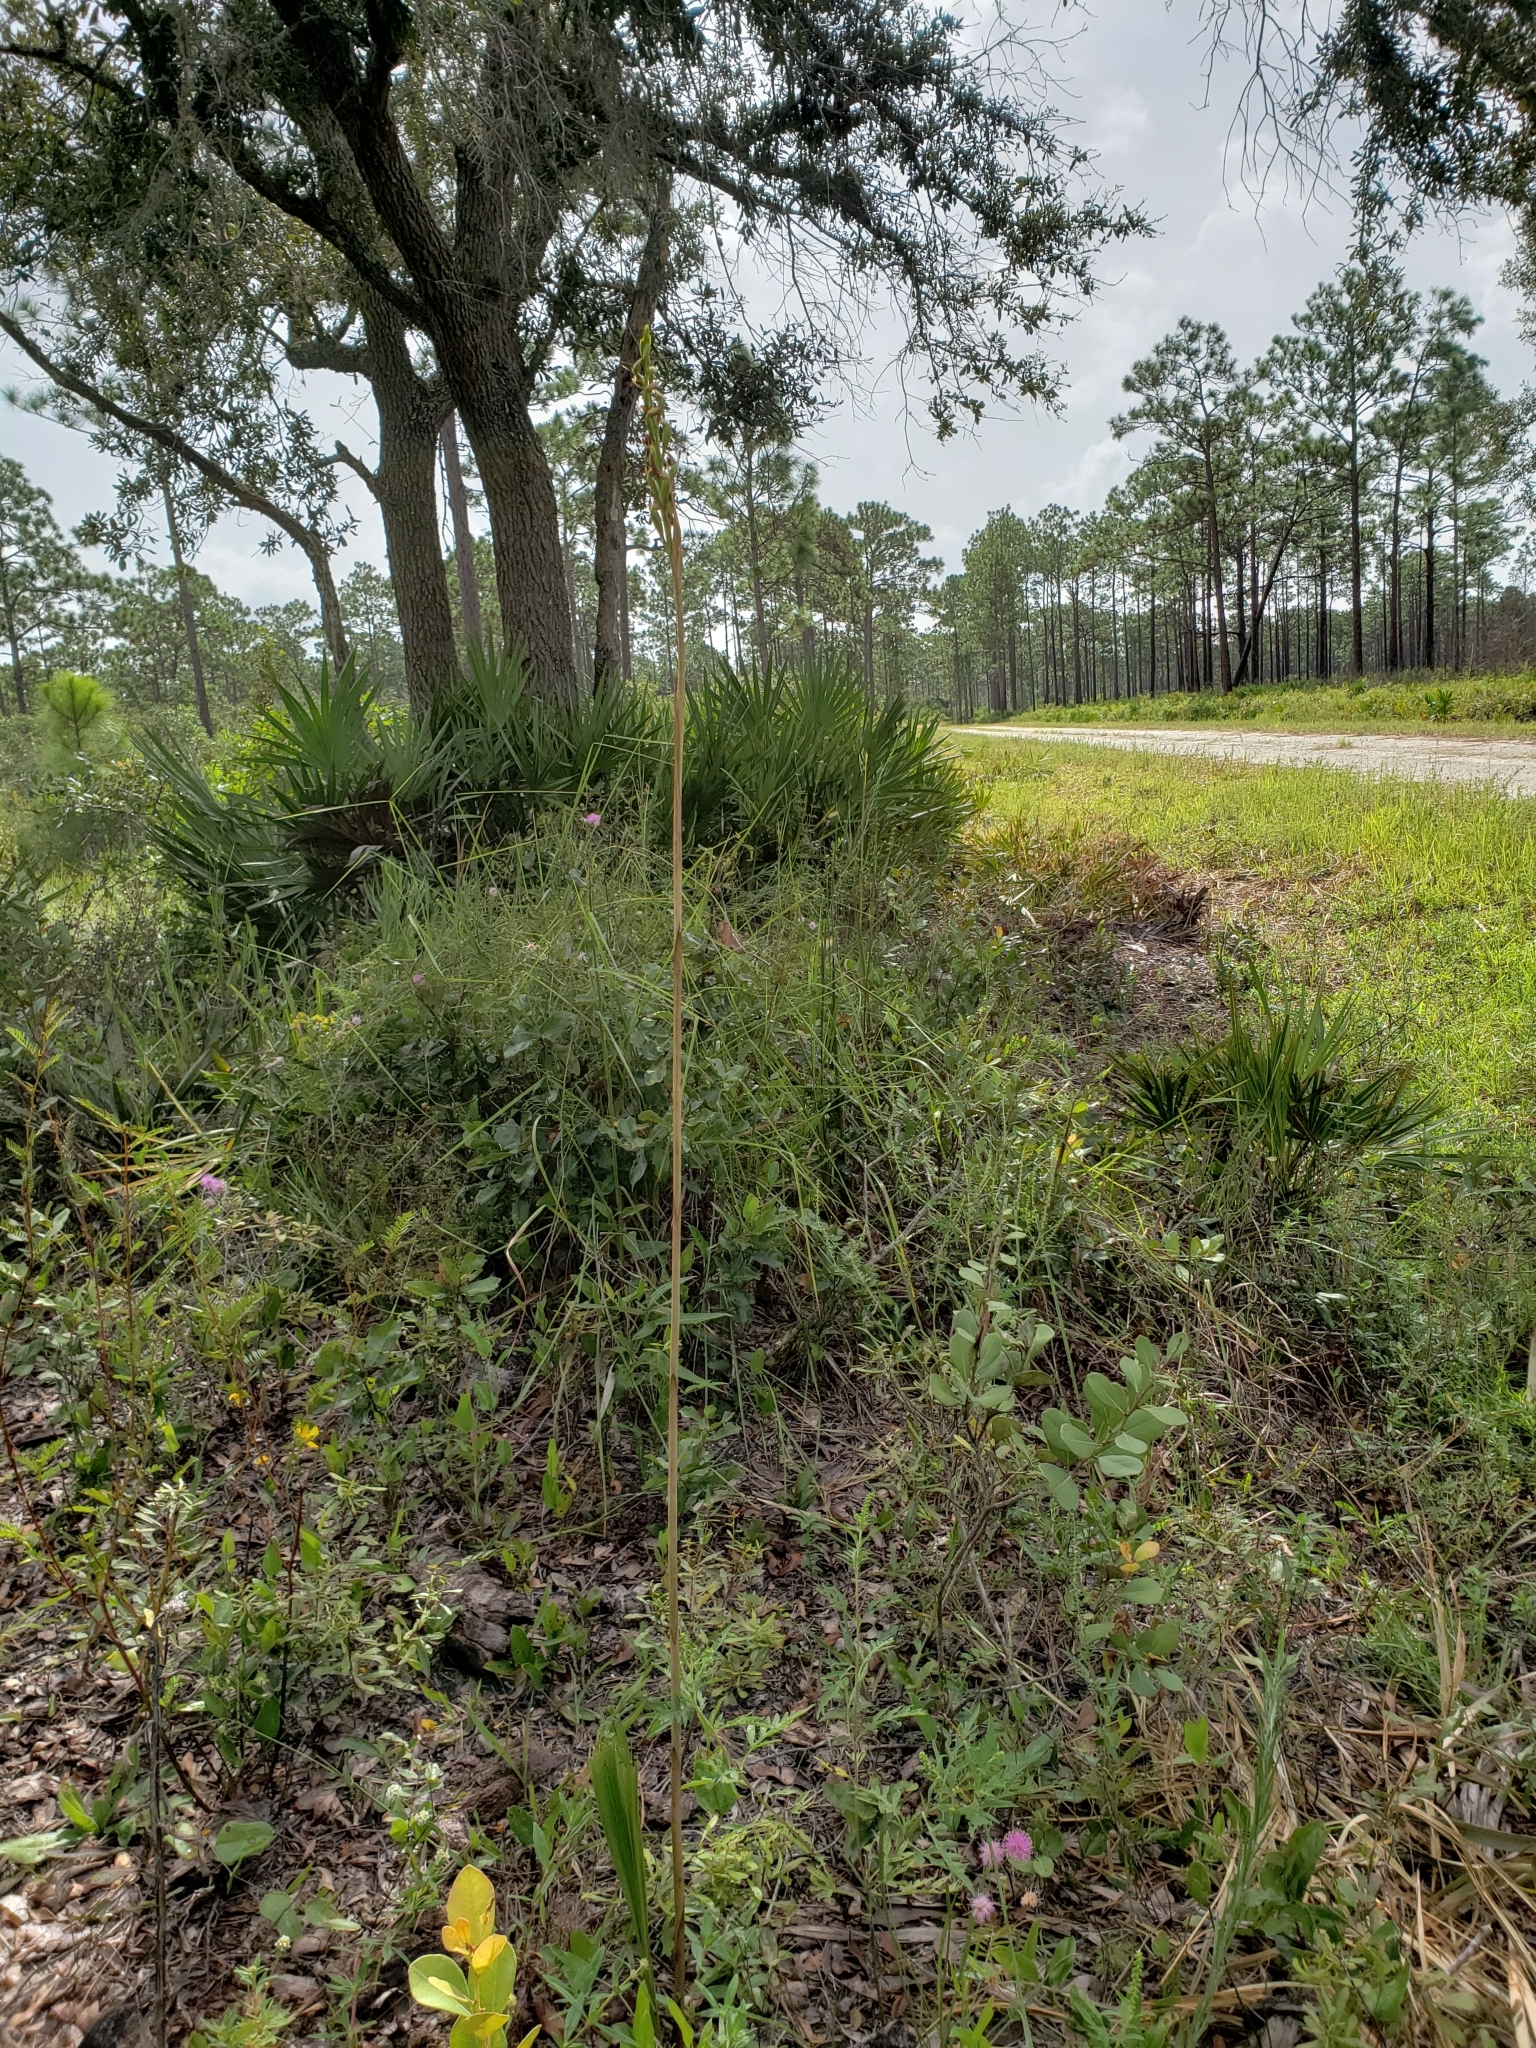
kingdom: Plantae
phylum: Tracheophyta
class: Liliopsida
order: Asparagales
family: Orchidaceae
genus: Eulophia
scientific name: Eulophia ecristata
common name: Giant orchid
